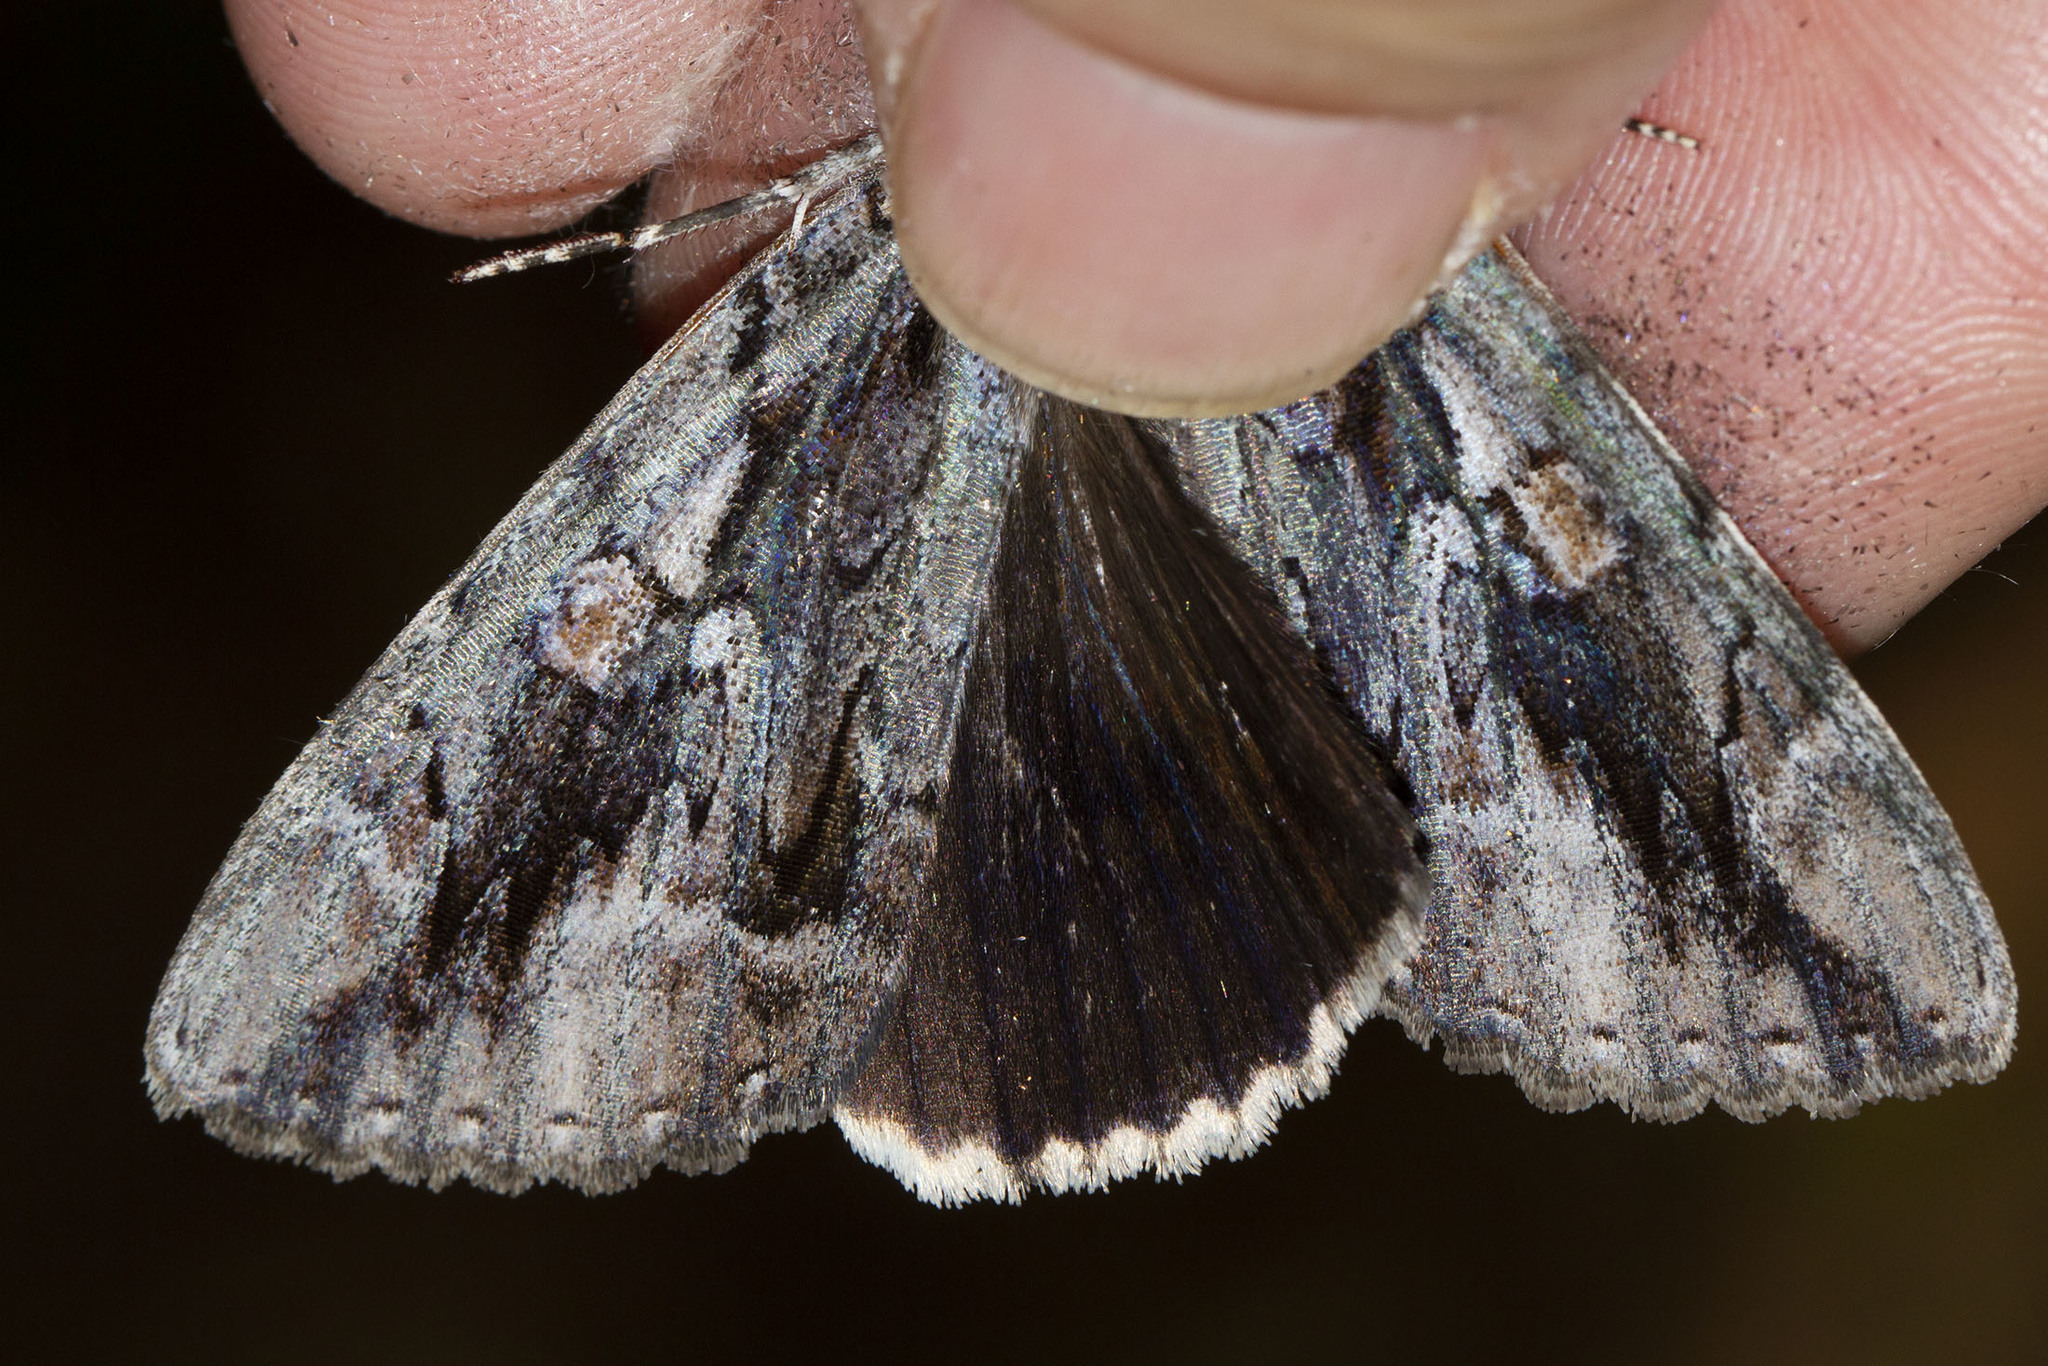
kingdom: Animalia
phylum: Arthropoda
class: Insecta
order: Lepidoptera
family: Erebidae
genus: Catocala
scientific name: Catocala flebilis
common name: Mournful underwing
